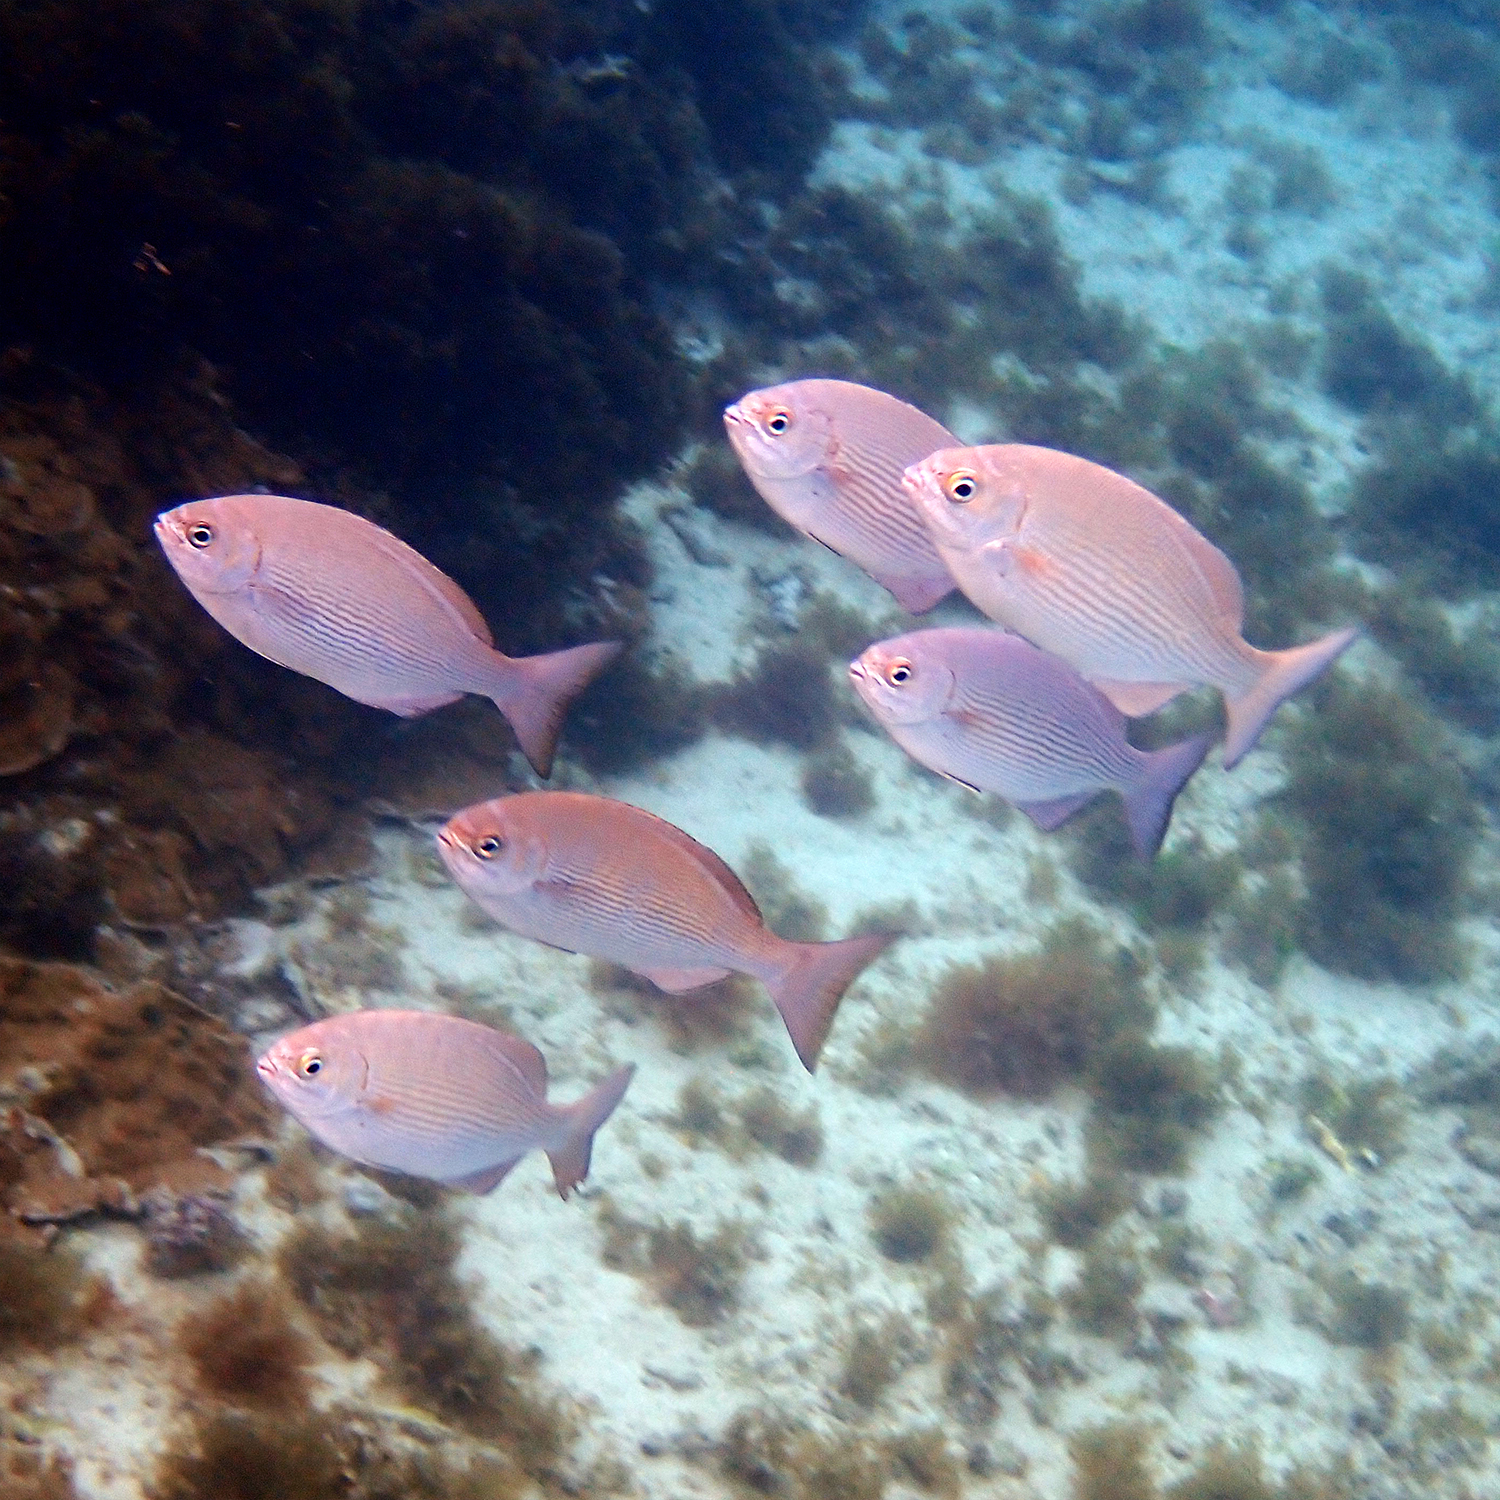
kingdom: Animalia
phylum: Chordata
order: Perciformes
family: Kyphosidae
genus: Kyphosus
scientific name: Kyphosus vaigiensis
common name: Brassy chub
